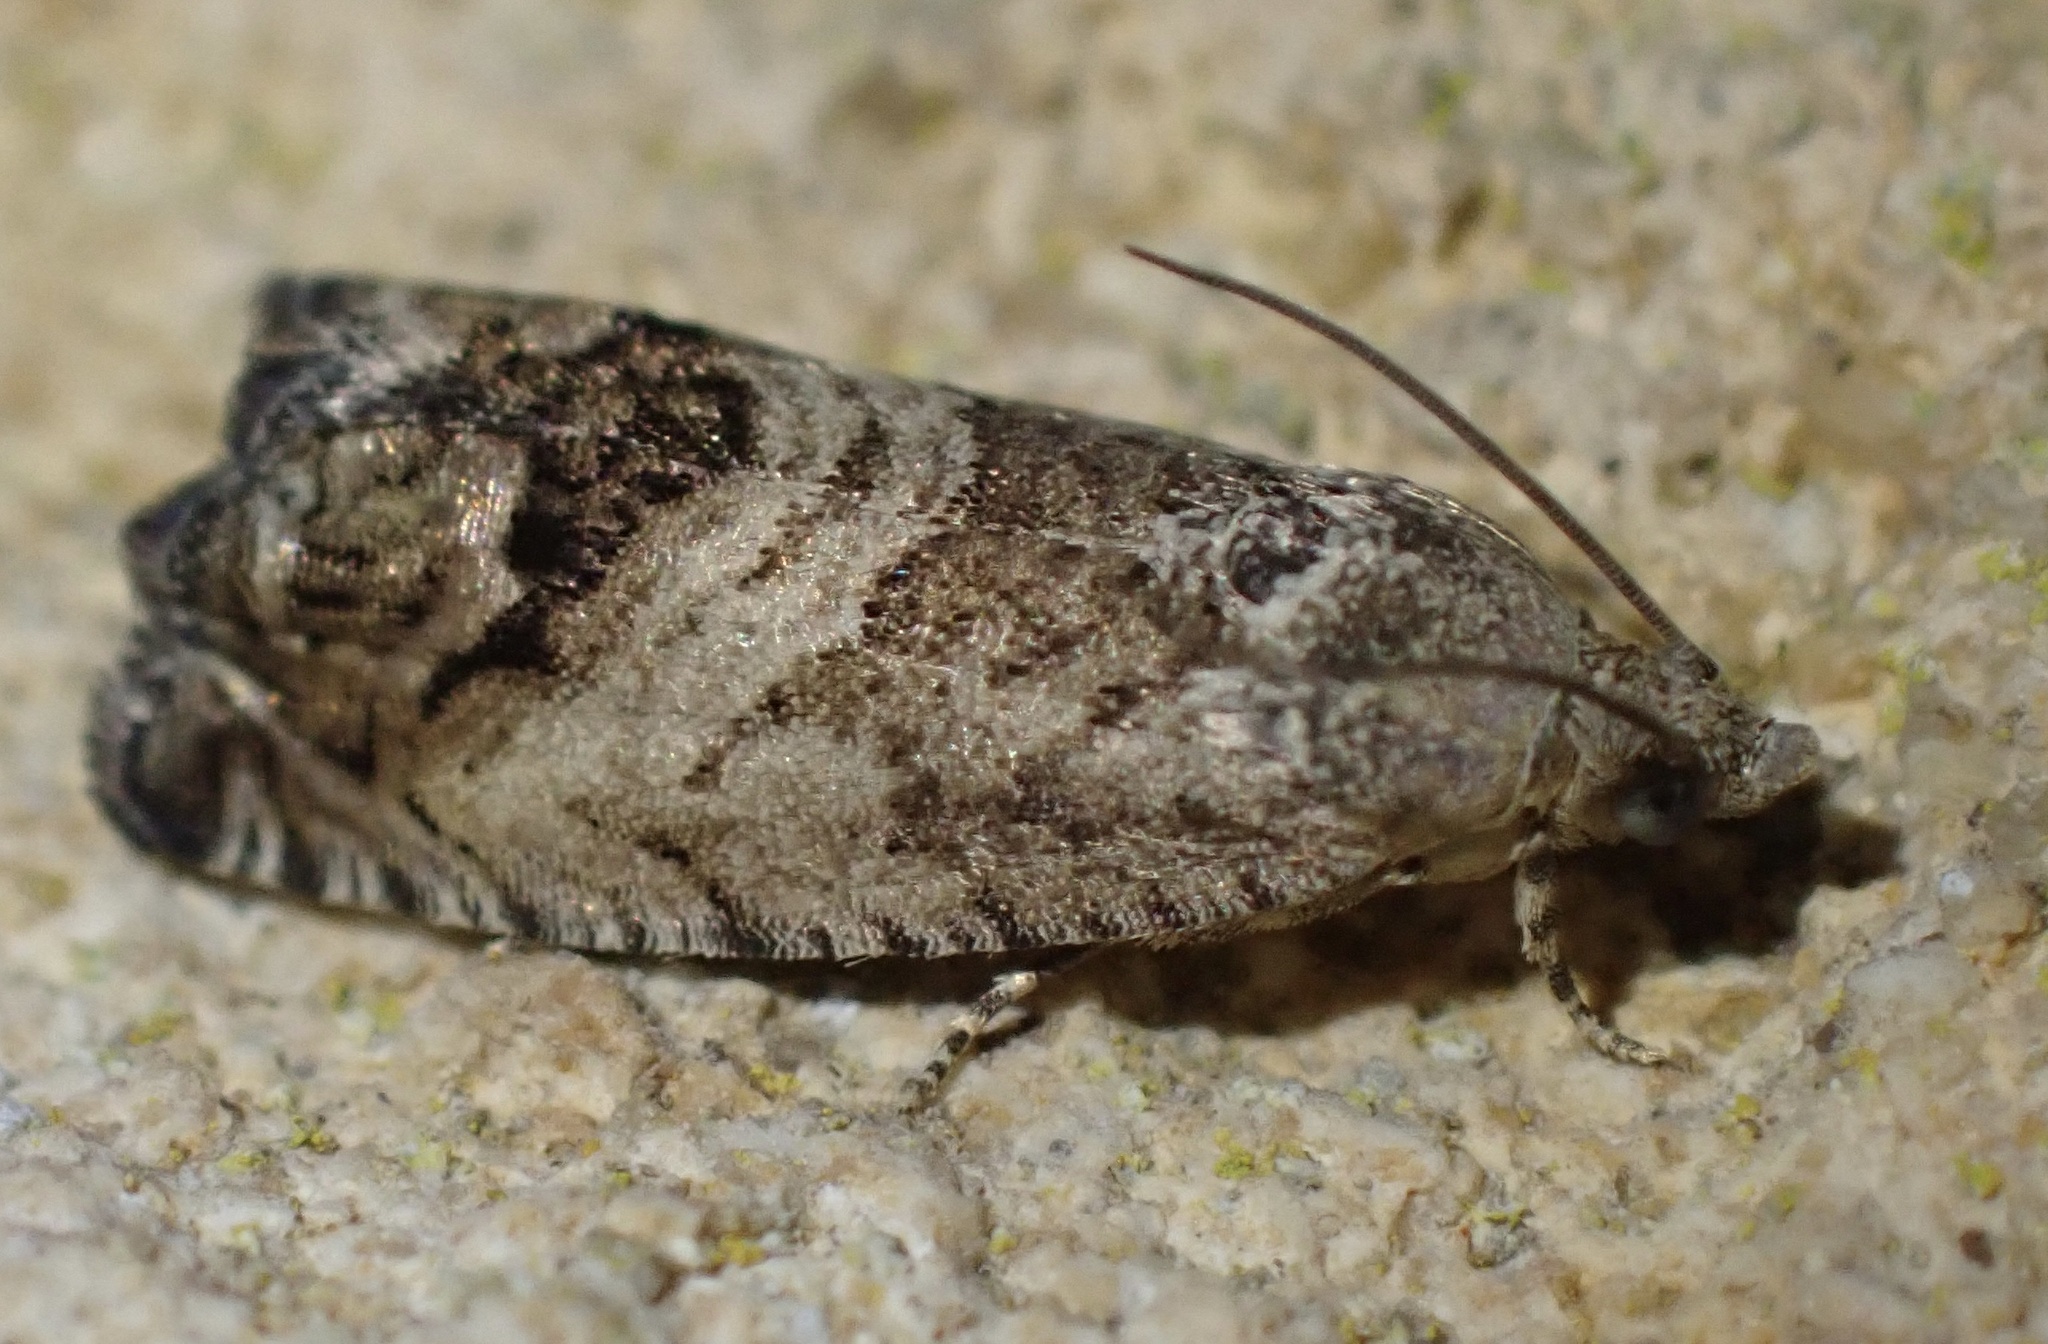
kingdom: Animalia
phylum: Arthropoda
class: Insecta
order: Lepidoptera
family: Tortricidae
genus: Cydia
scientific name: Cydia splendana
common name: De: kastanienwickler, eichenwickler es: oruga de la castaña fr: carpocapse des châtaignes it: cidia o tortrice tardiva delle castagne pt: bichado das castanhas gb: acorn moth, chestnut fruit tortrix
